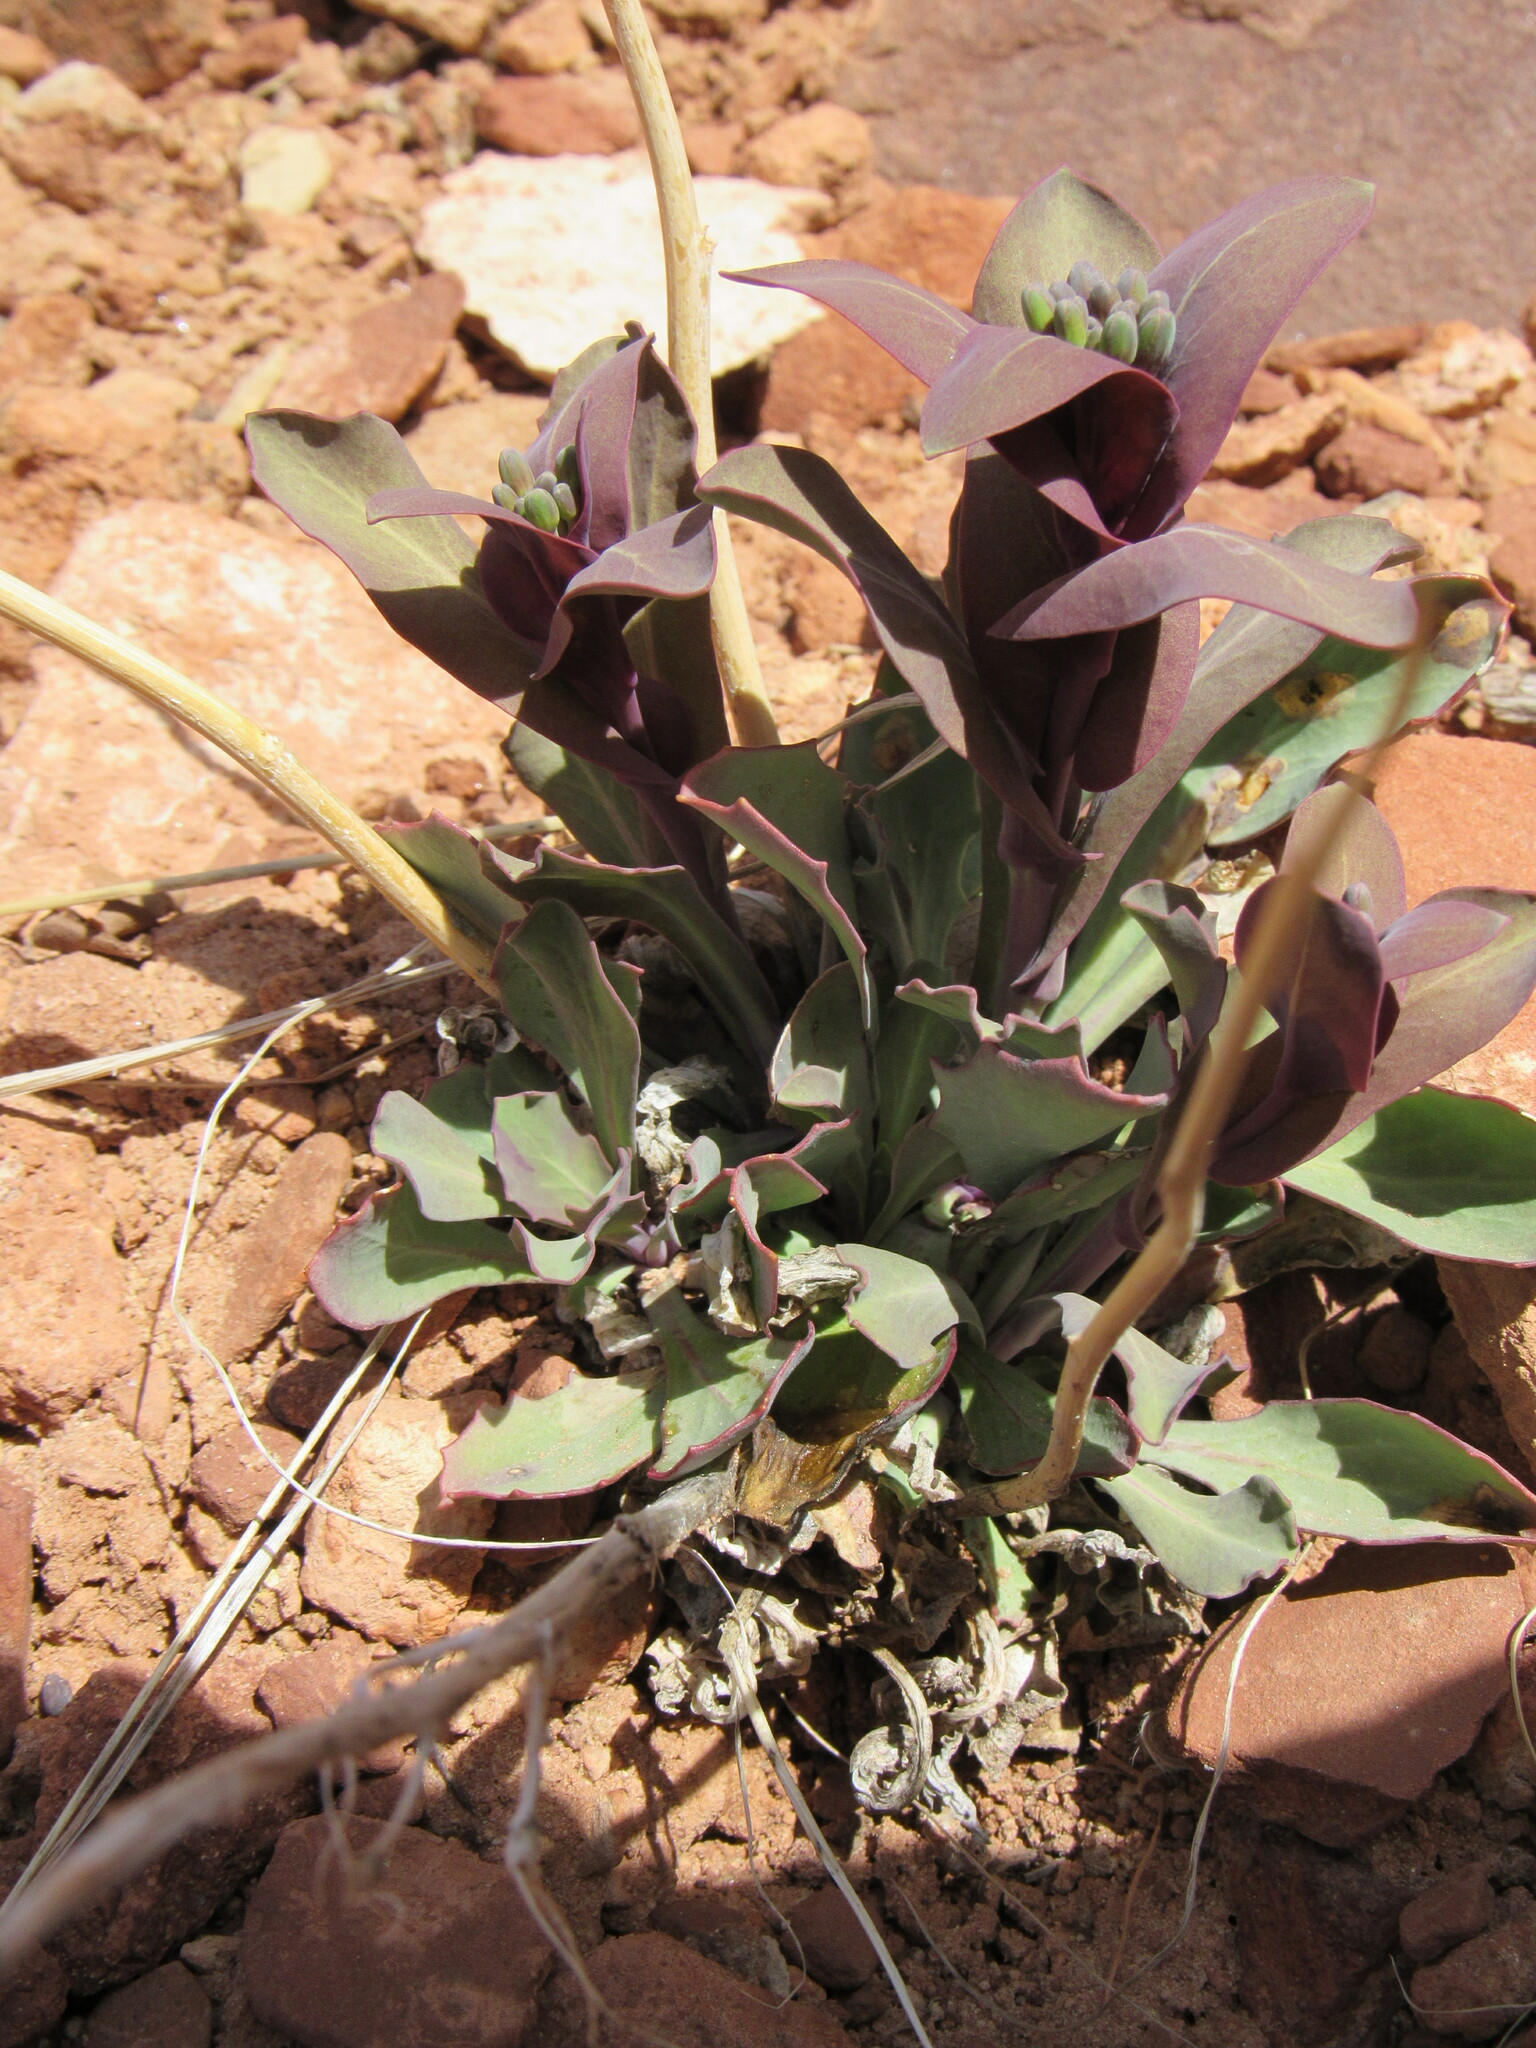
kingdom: Plantae
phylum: Tracheophyta
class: Magnoliopsida
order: Brassicales
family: Brassicaceae
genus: Streptanthus
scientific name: Streptanthus cordatus
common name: Heart-leaf jewel-flower
